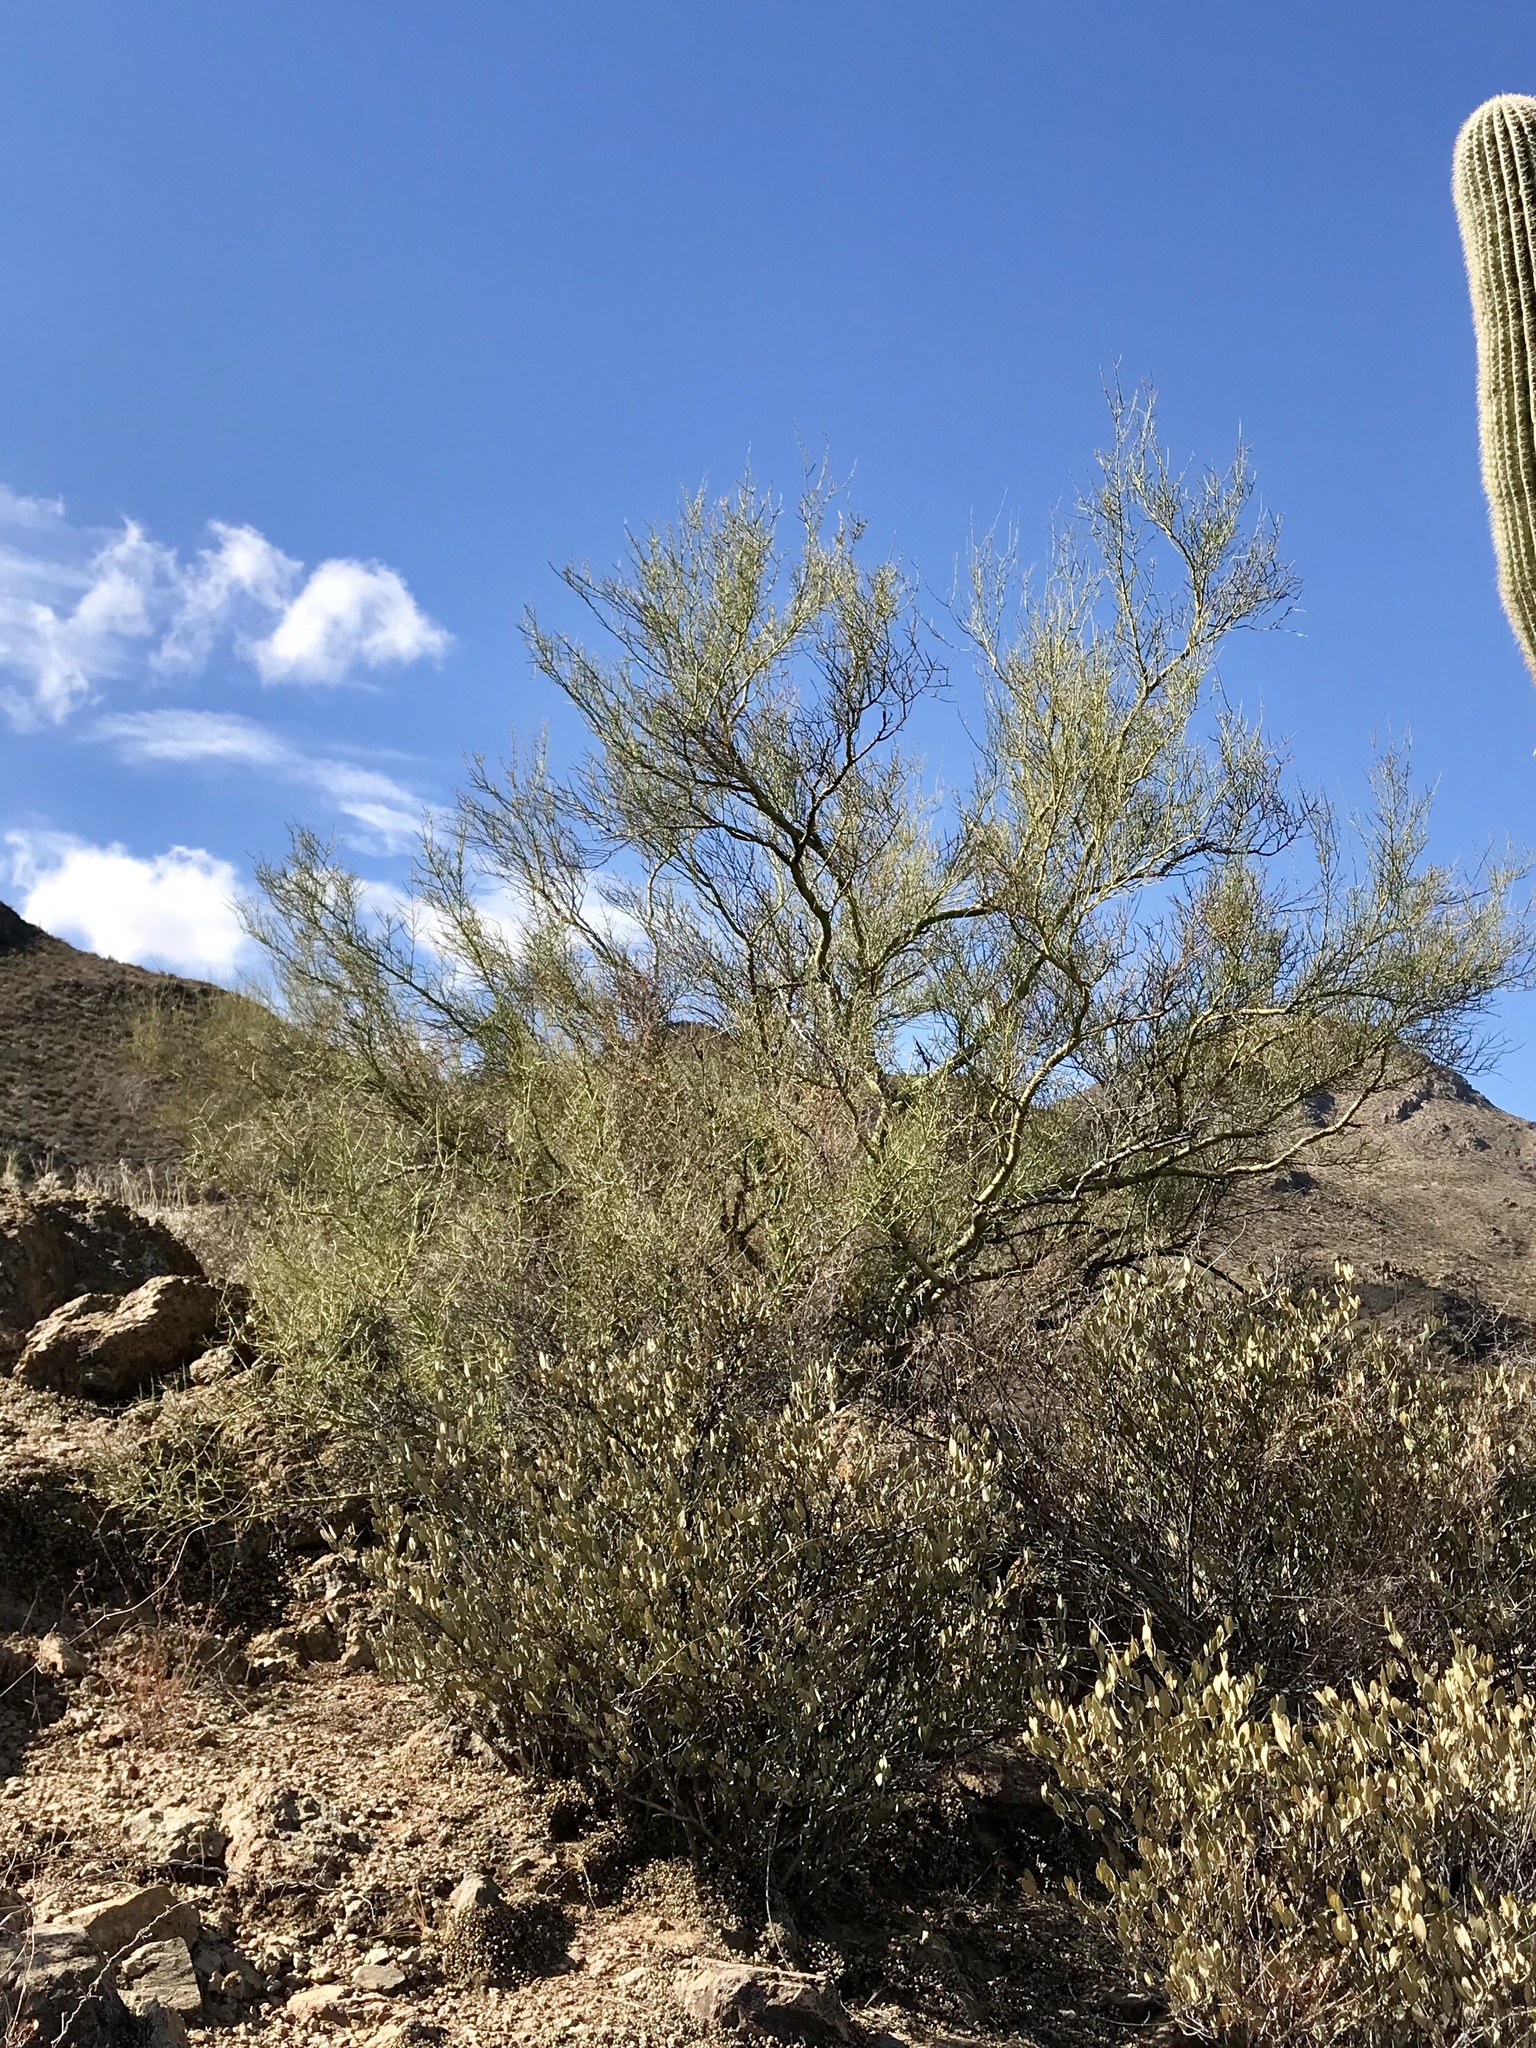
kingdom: Plantae
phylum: Tracheophyta
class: Magnoliopsida
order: Fabales
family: Fabaceae
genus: Parkinsonia
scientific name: Parkinsonia microphylla
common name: Yellow paloverde
